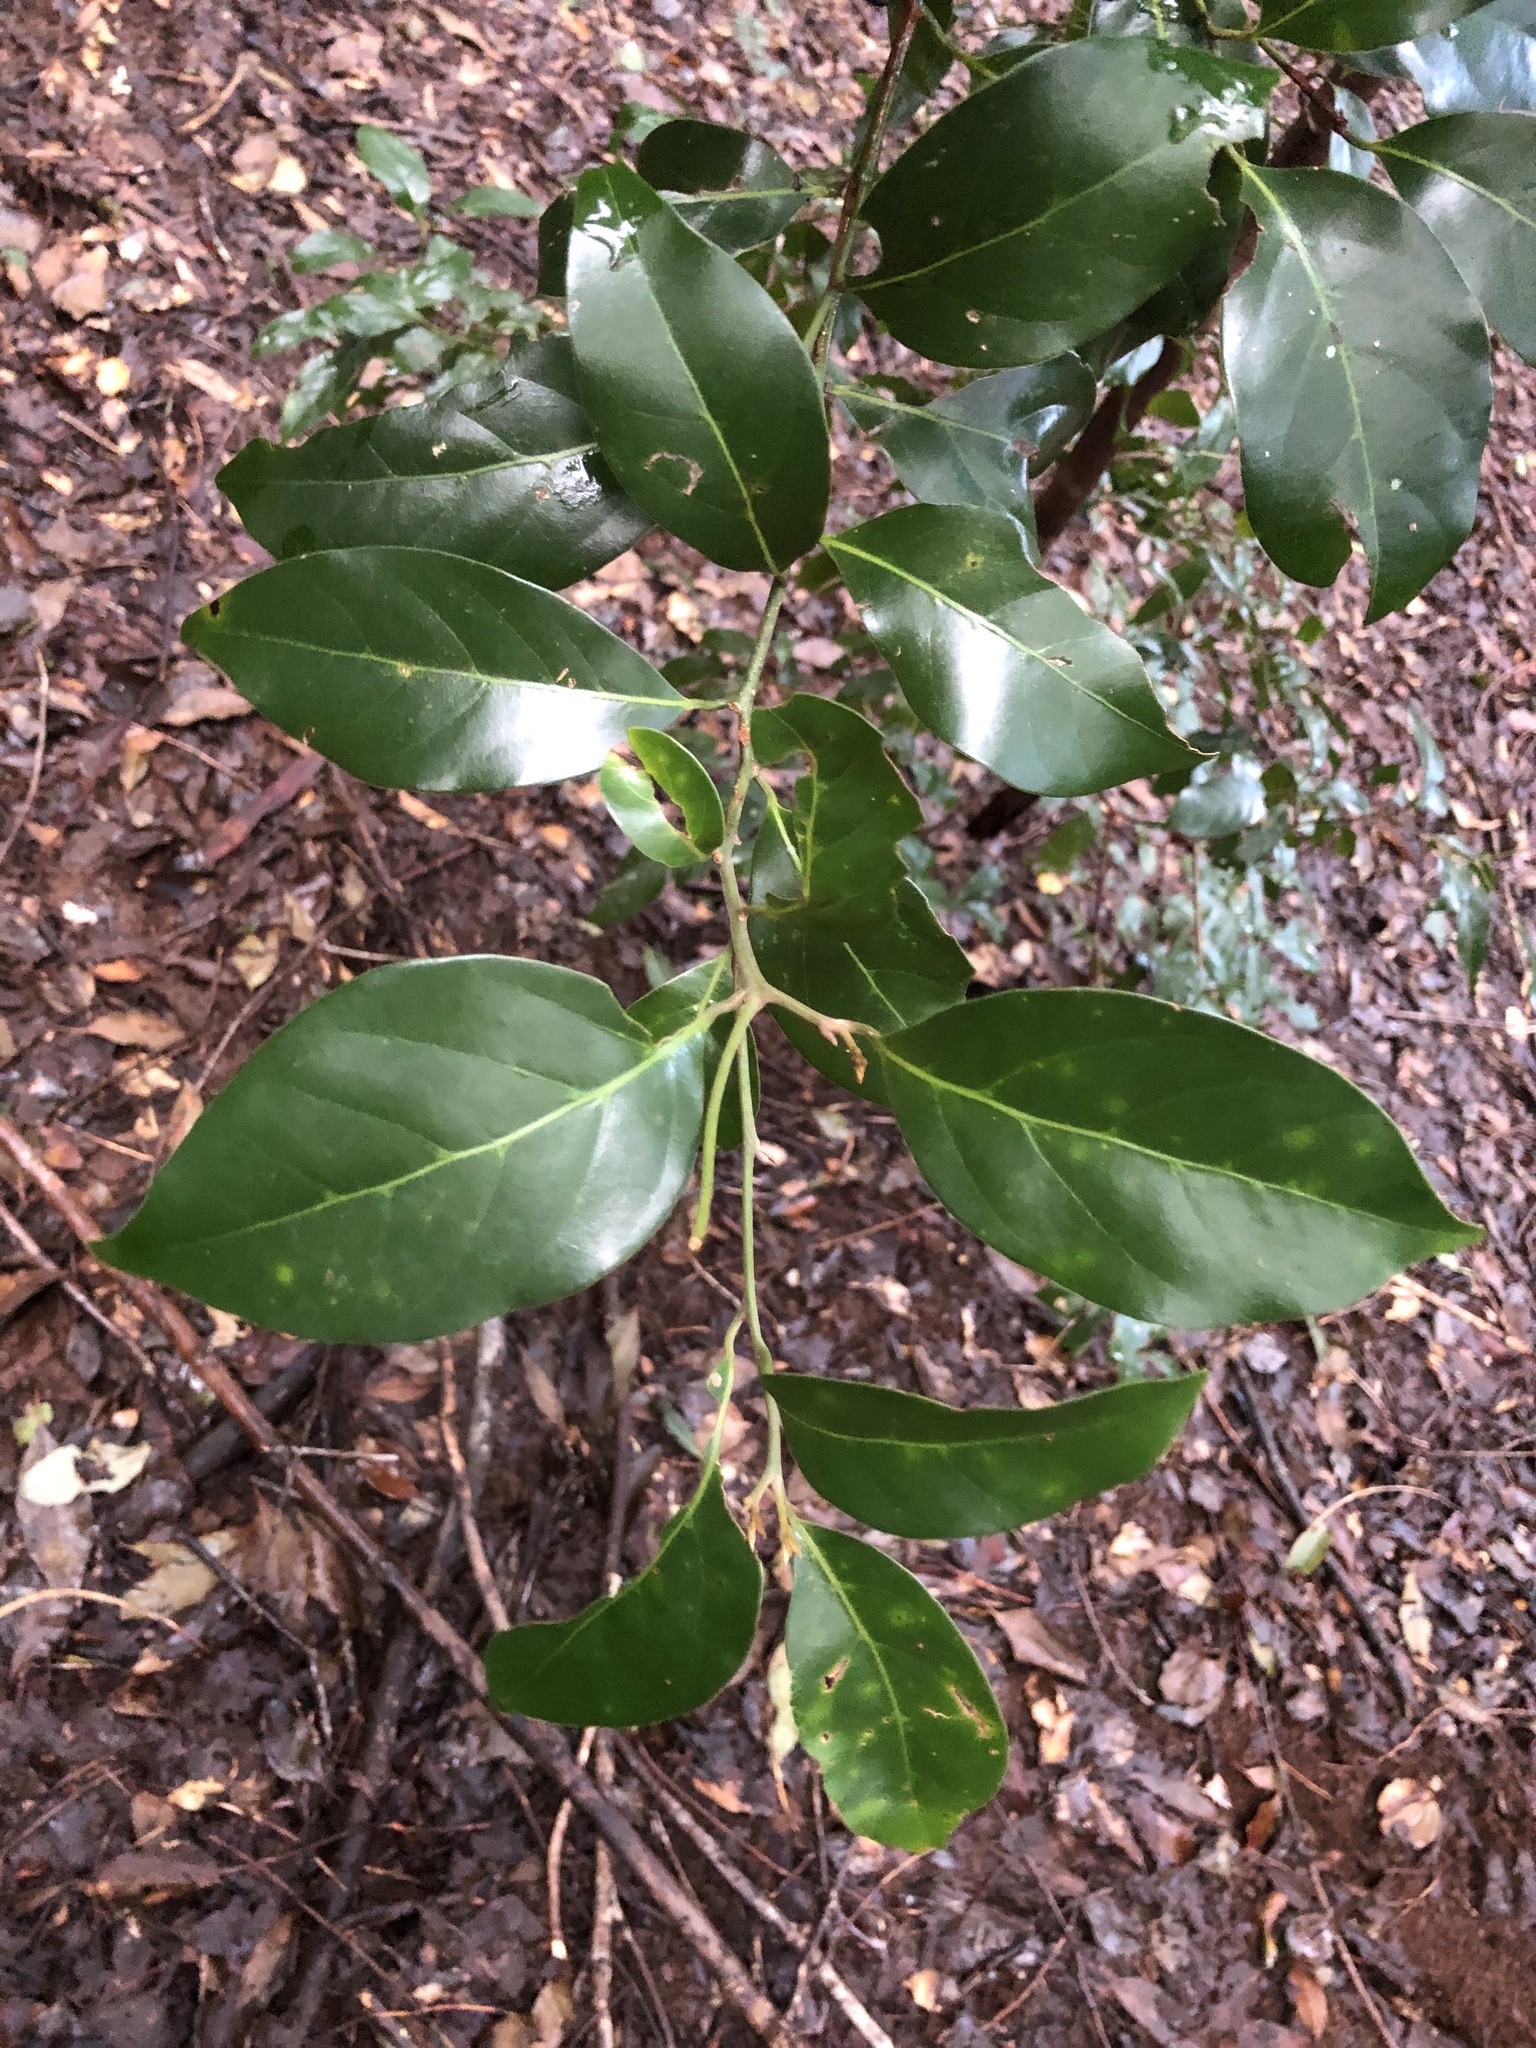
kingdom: Plantae
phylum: Tracheophyta
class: Magnoliopsida
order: Laurales
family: Lauraceae
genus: Endiandra
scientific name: Endiandra discolor
